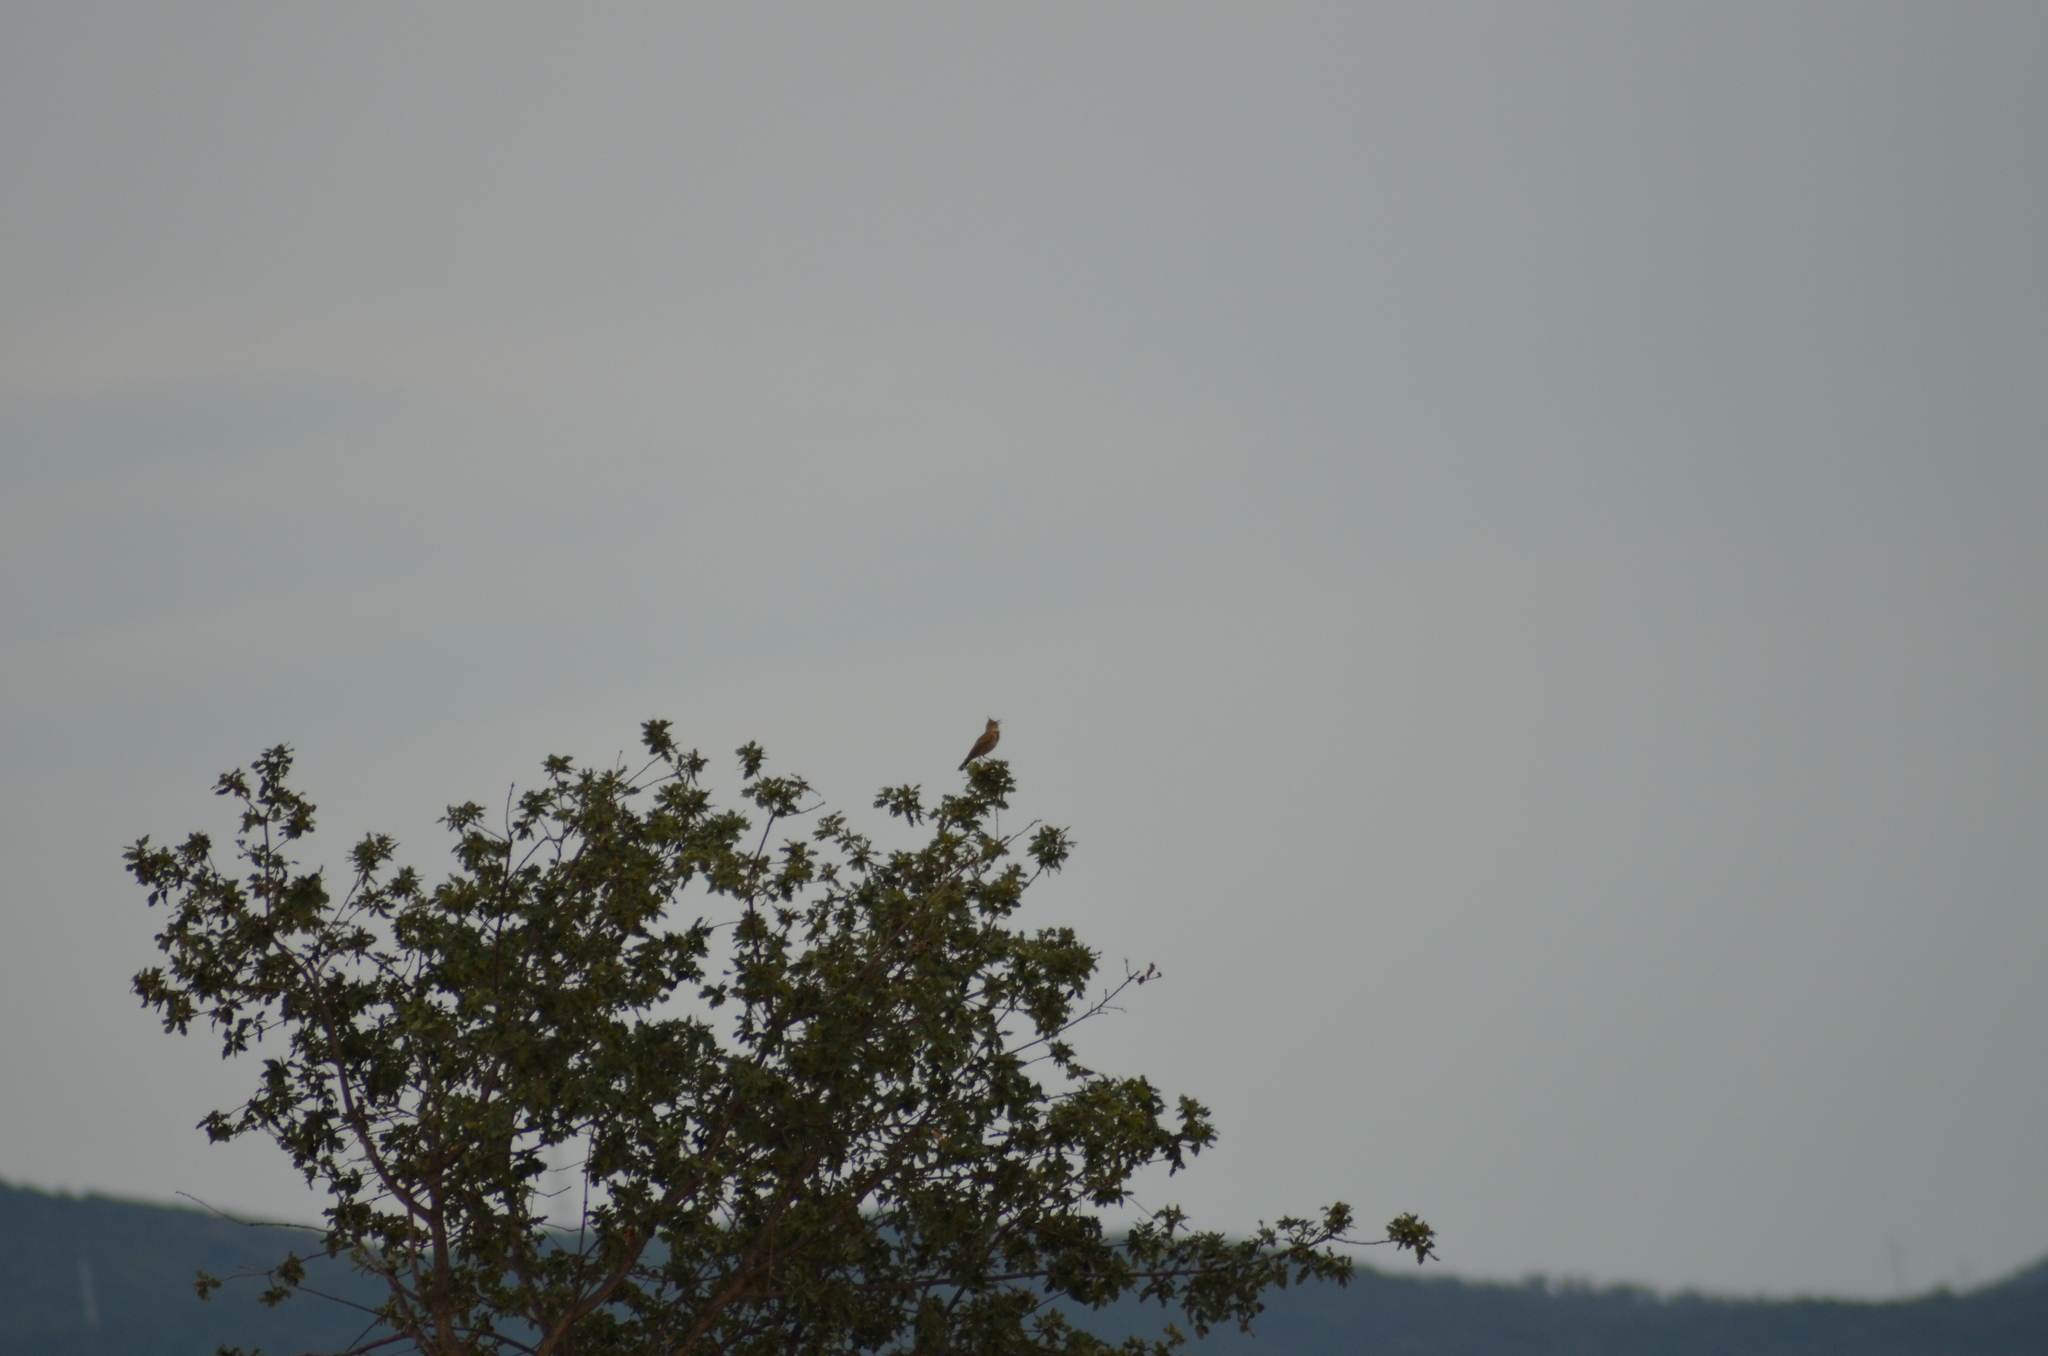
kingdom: Animalia
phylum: Chordata
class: Aves
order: Passeriformes
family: Alaudidae
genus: Galerida
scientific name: Galerida cristata
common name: Crested lark
